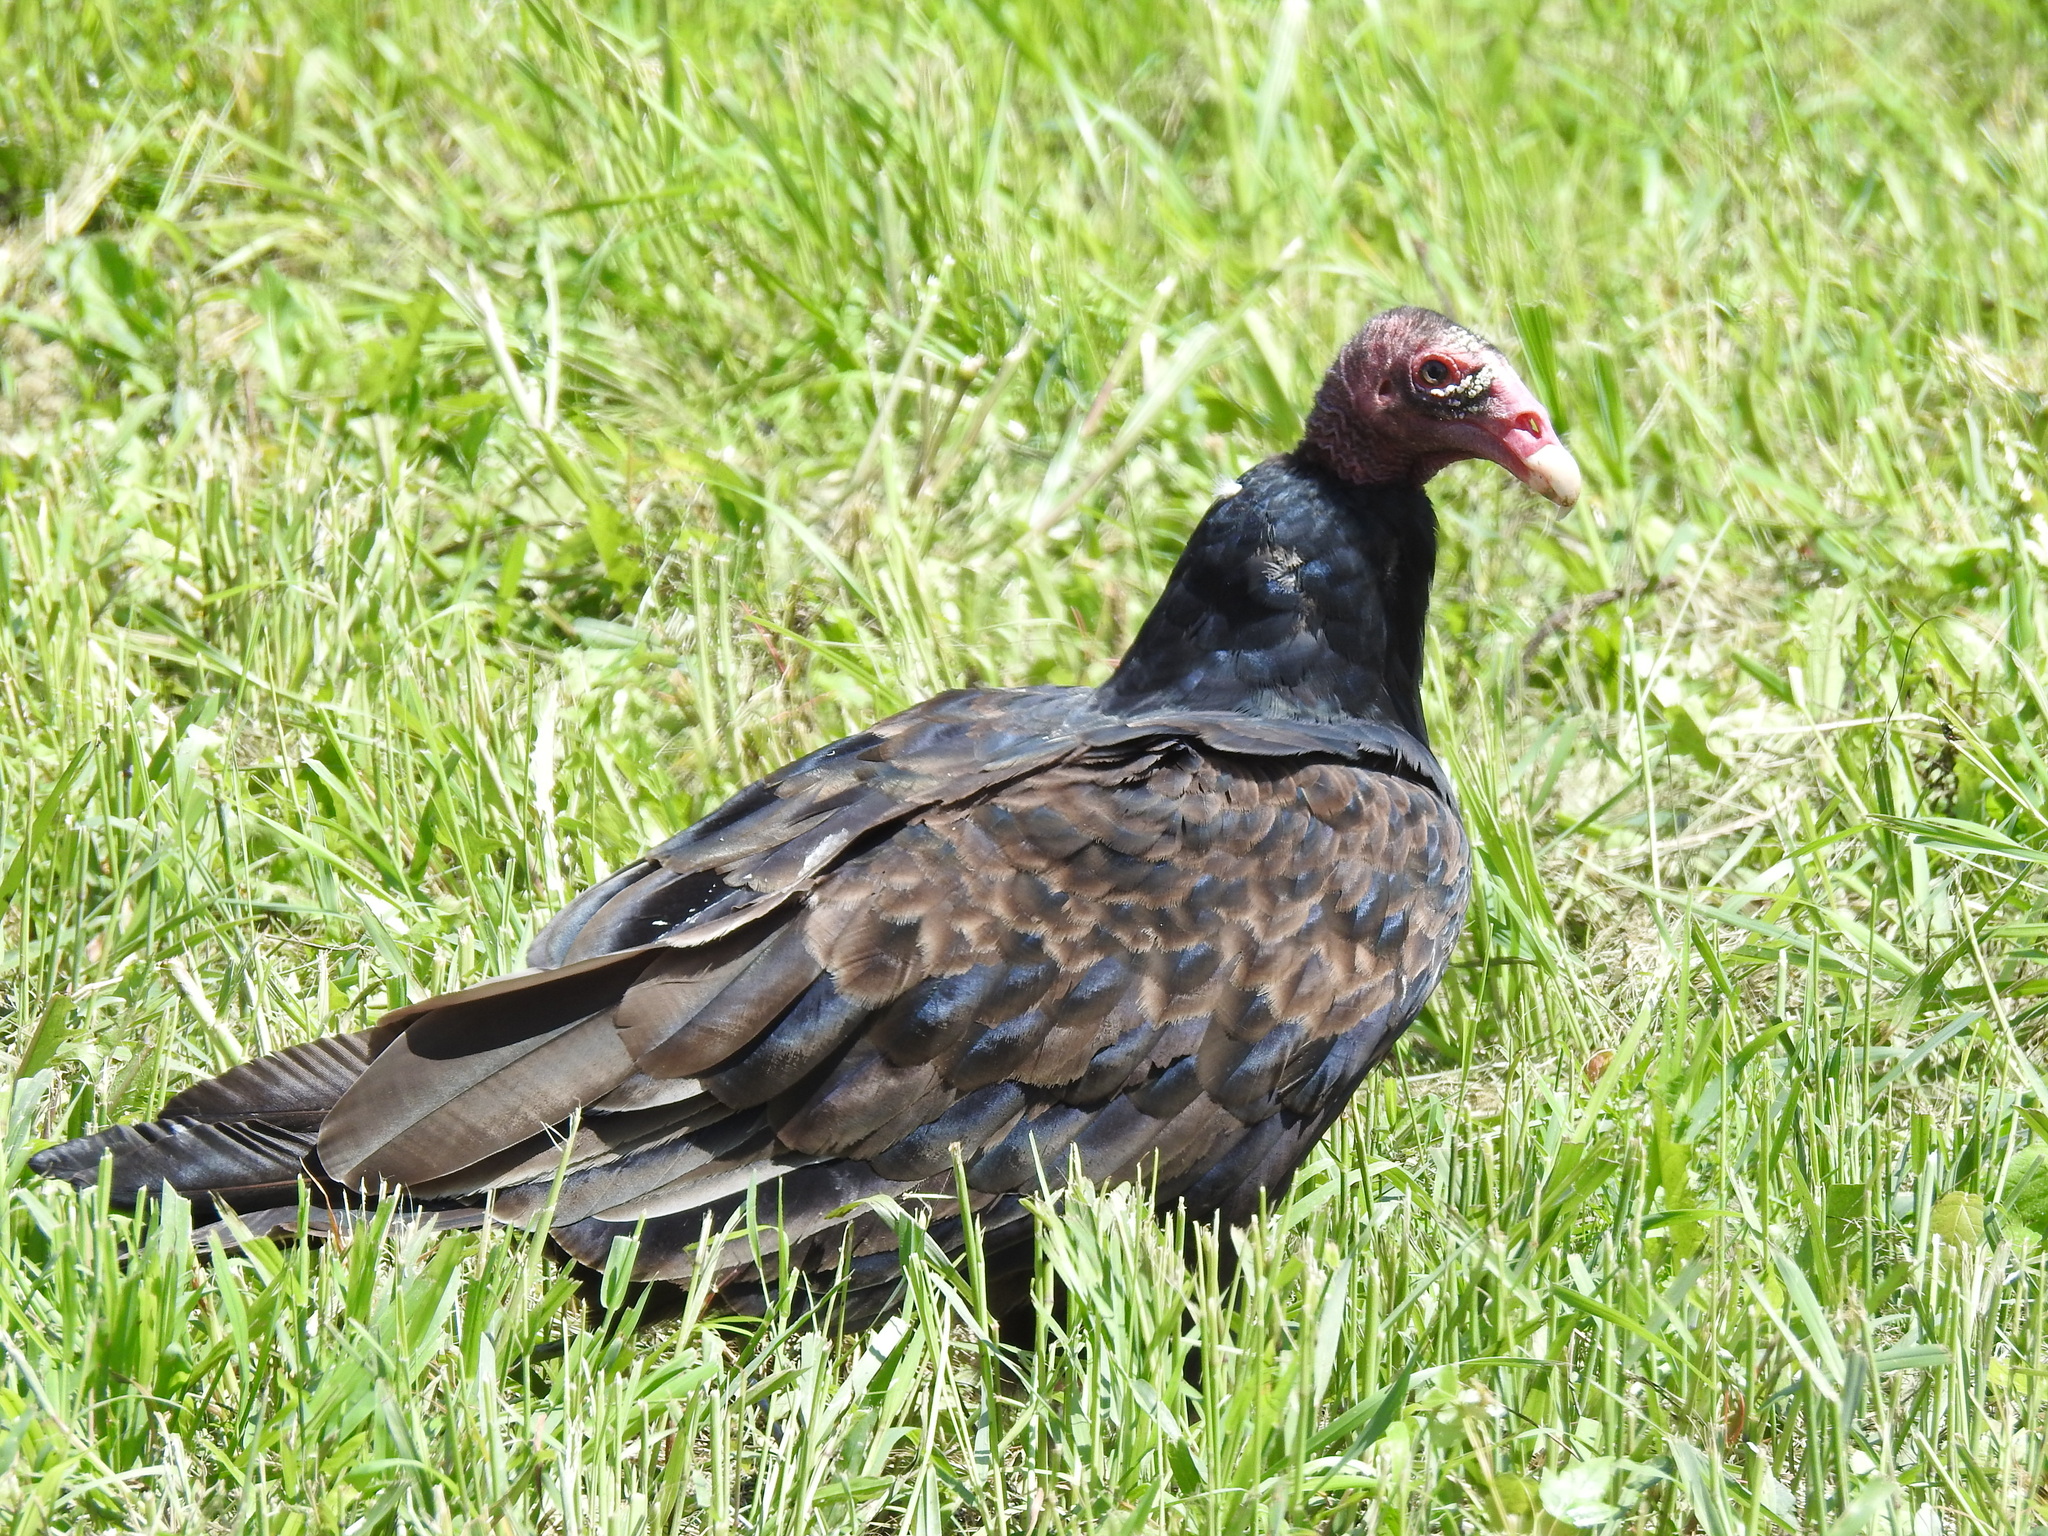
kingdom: Animalia
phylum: Chordata
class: Aves
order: Accipitriformes
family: Cathartidae
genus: Cathartes
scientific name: Cathartes aura
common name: Turkey vulture
